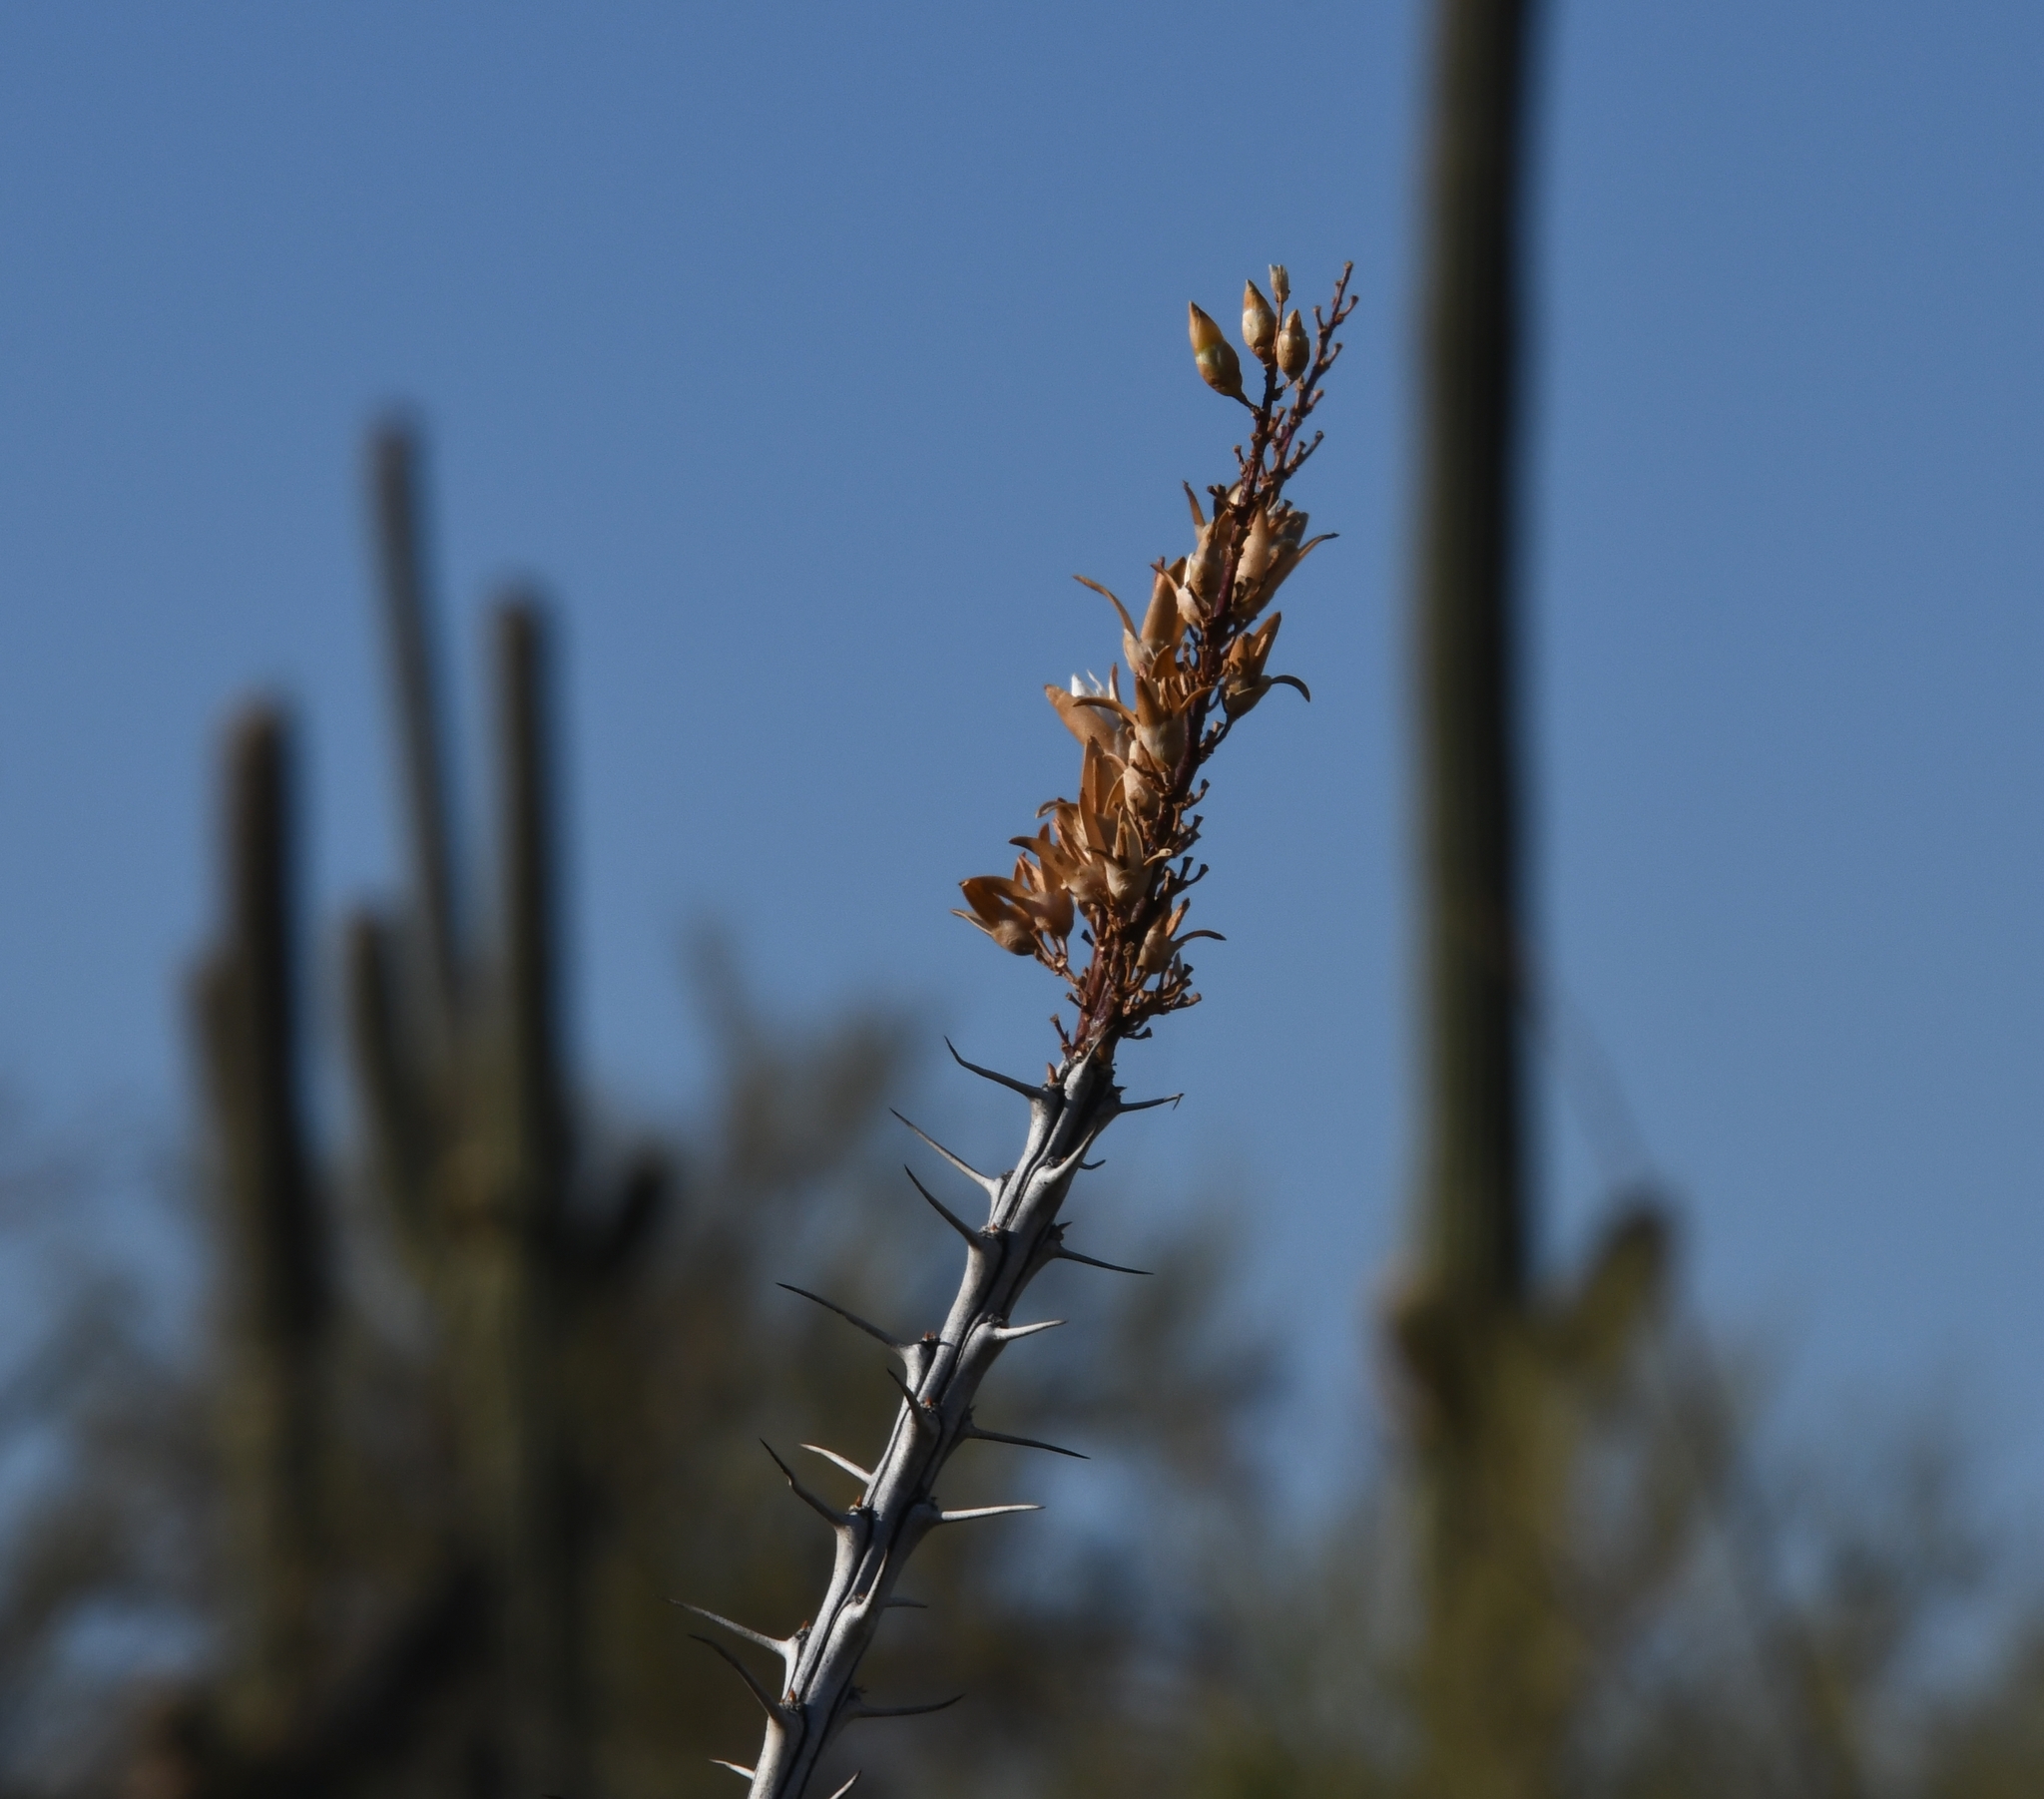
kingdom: Plantae
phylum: Tracheophyta
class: Magnoliopsida
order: Ericales
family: Fouquieriaceae
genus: Fouquieria
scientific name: Fouquieria splendens
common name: Vine-cactus
